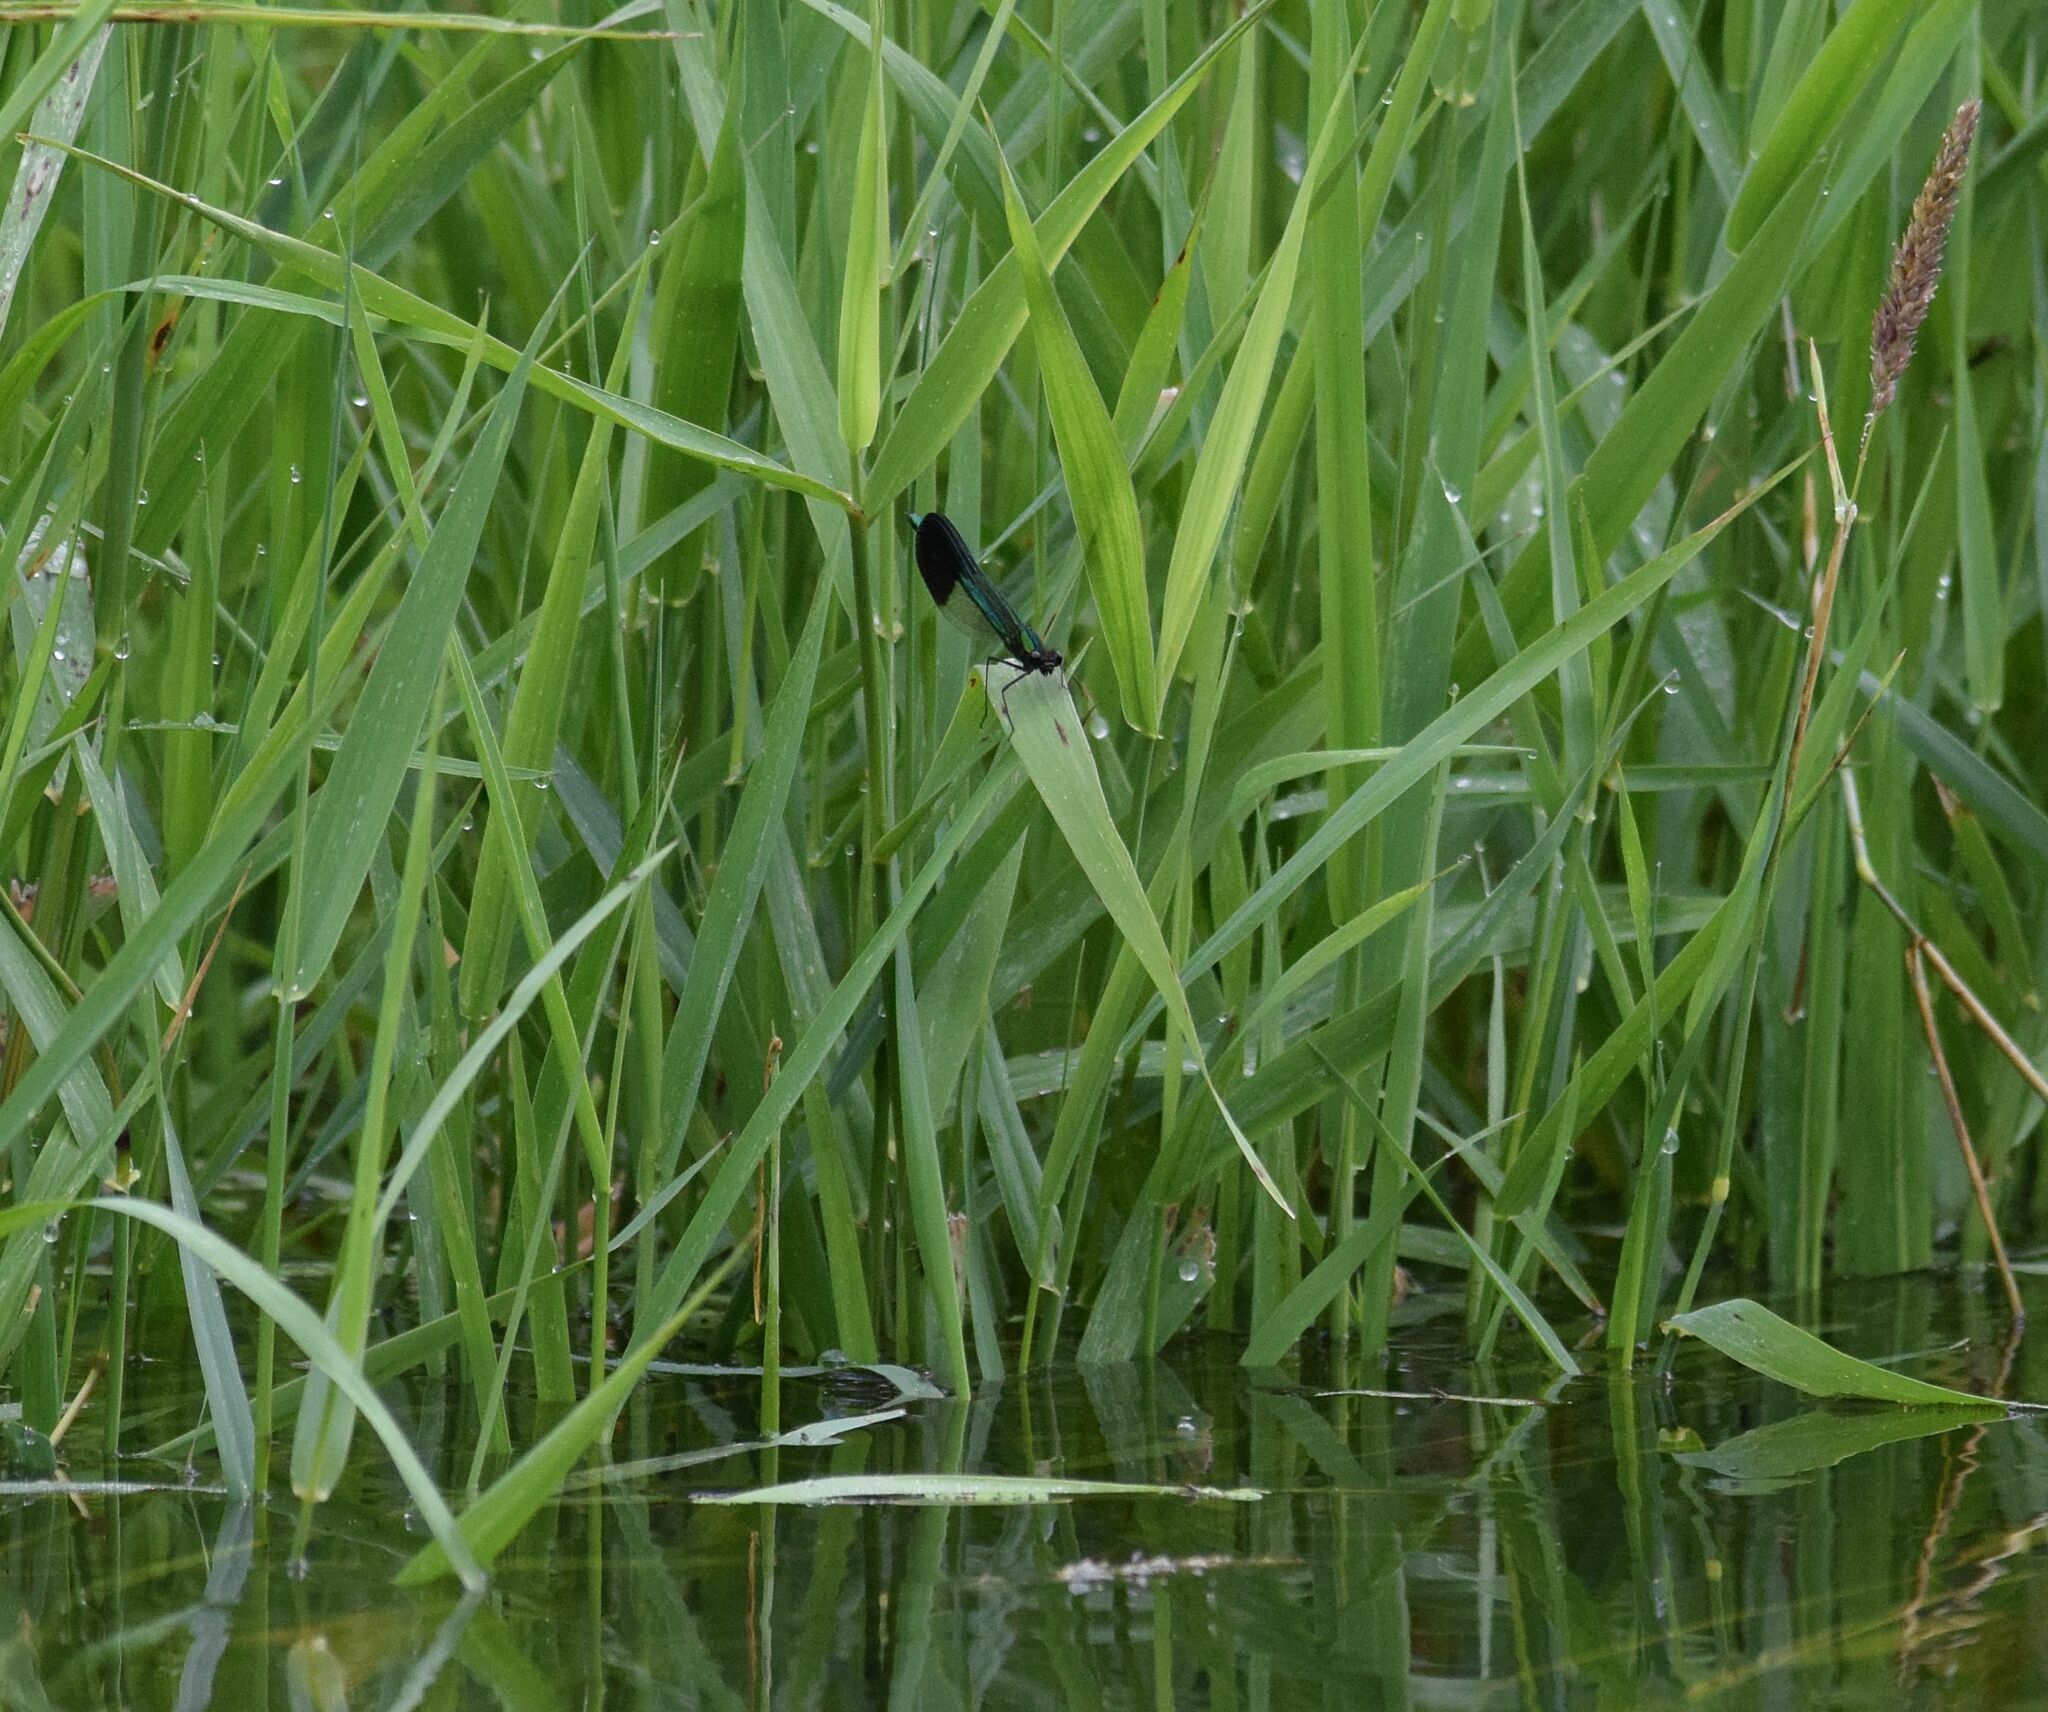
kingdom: Animalia
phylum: Arthropoda
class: Insecta
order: Odonata
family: Calopterygidae
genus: Calopteryx
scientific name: Calopteryx aequabilis
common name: River jewelwing
